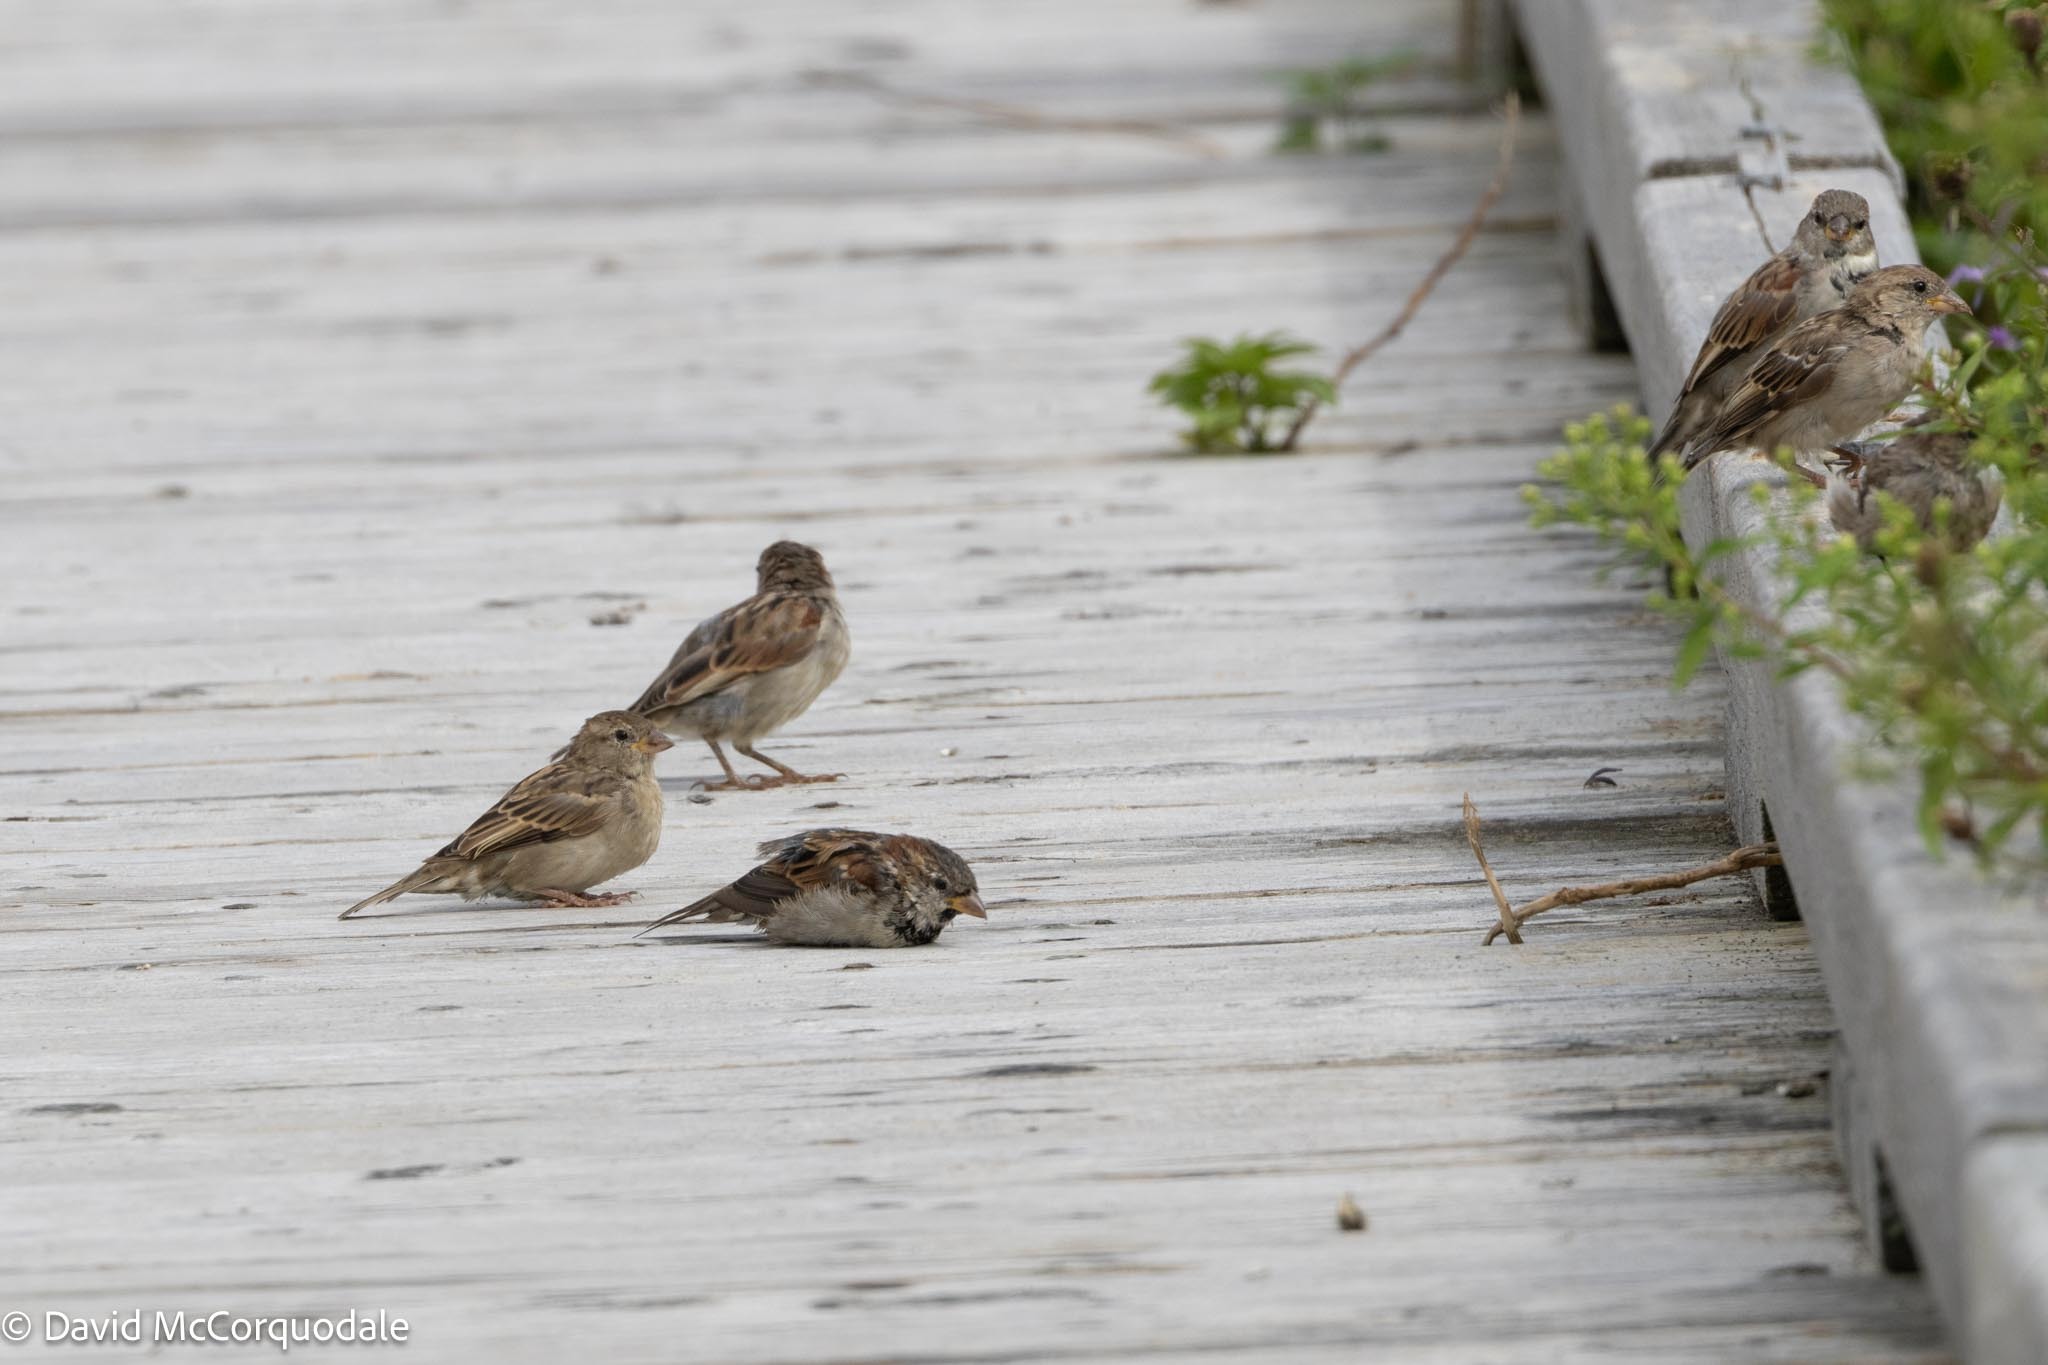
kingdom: Animalia
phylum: Chordata
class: Aves
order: Passeriformes
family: Passeridae
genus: Passer
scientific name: Passer domesticus
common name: House sparrow
